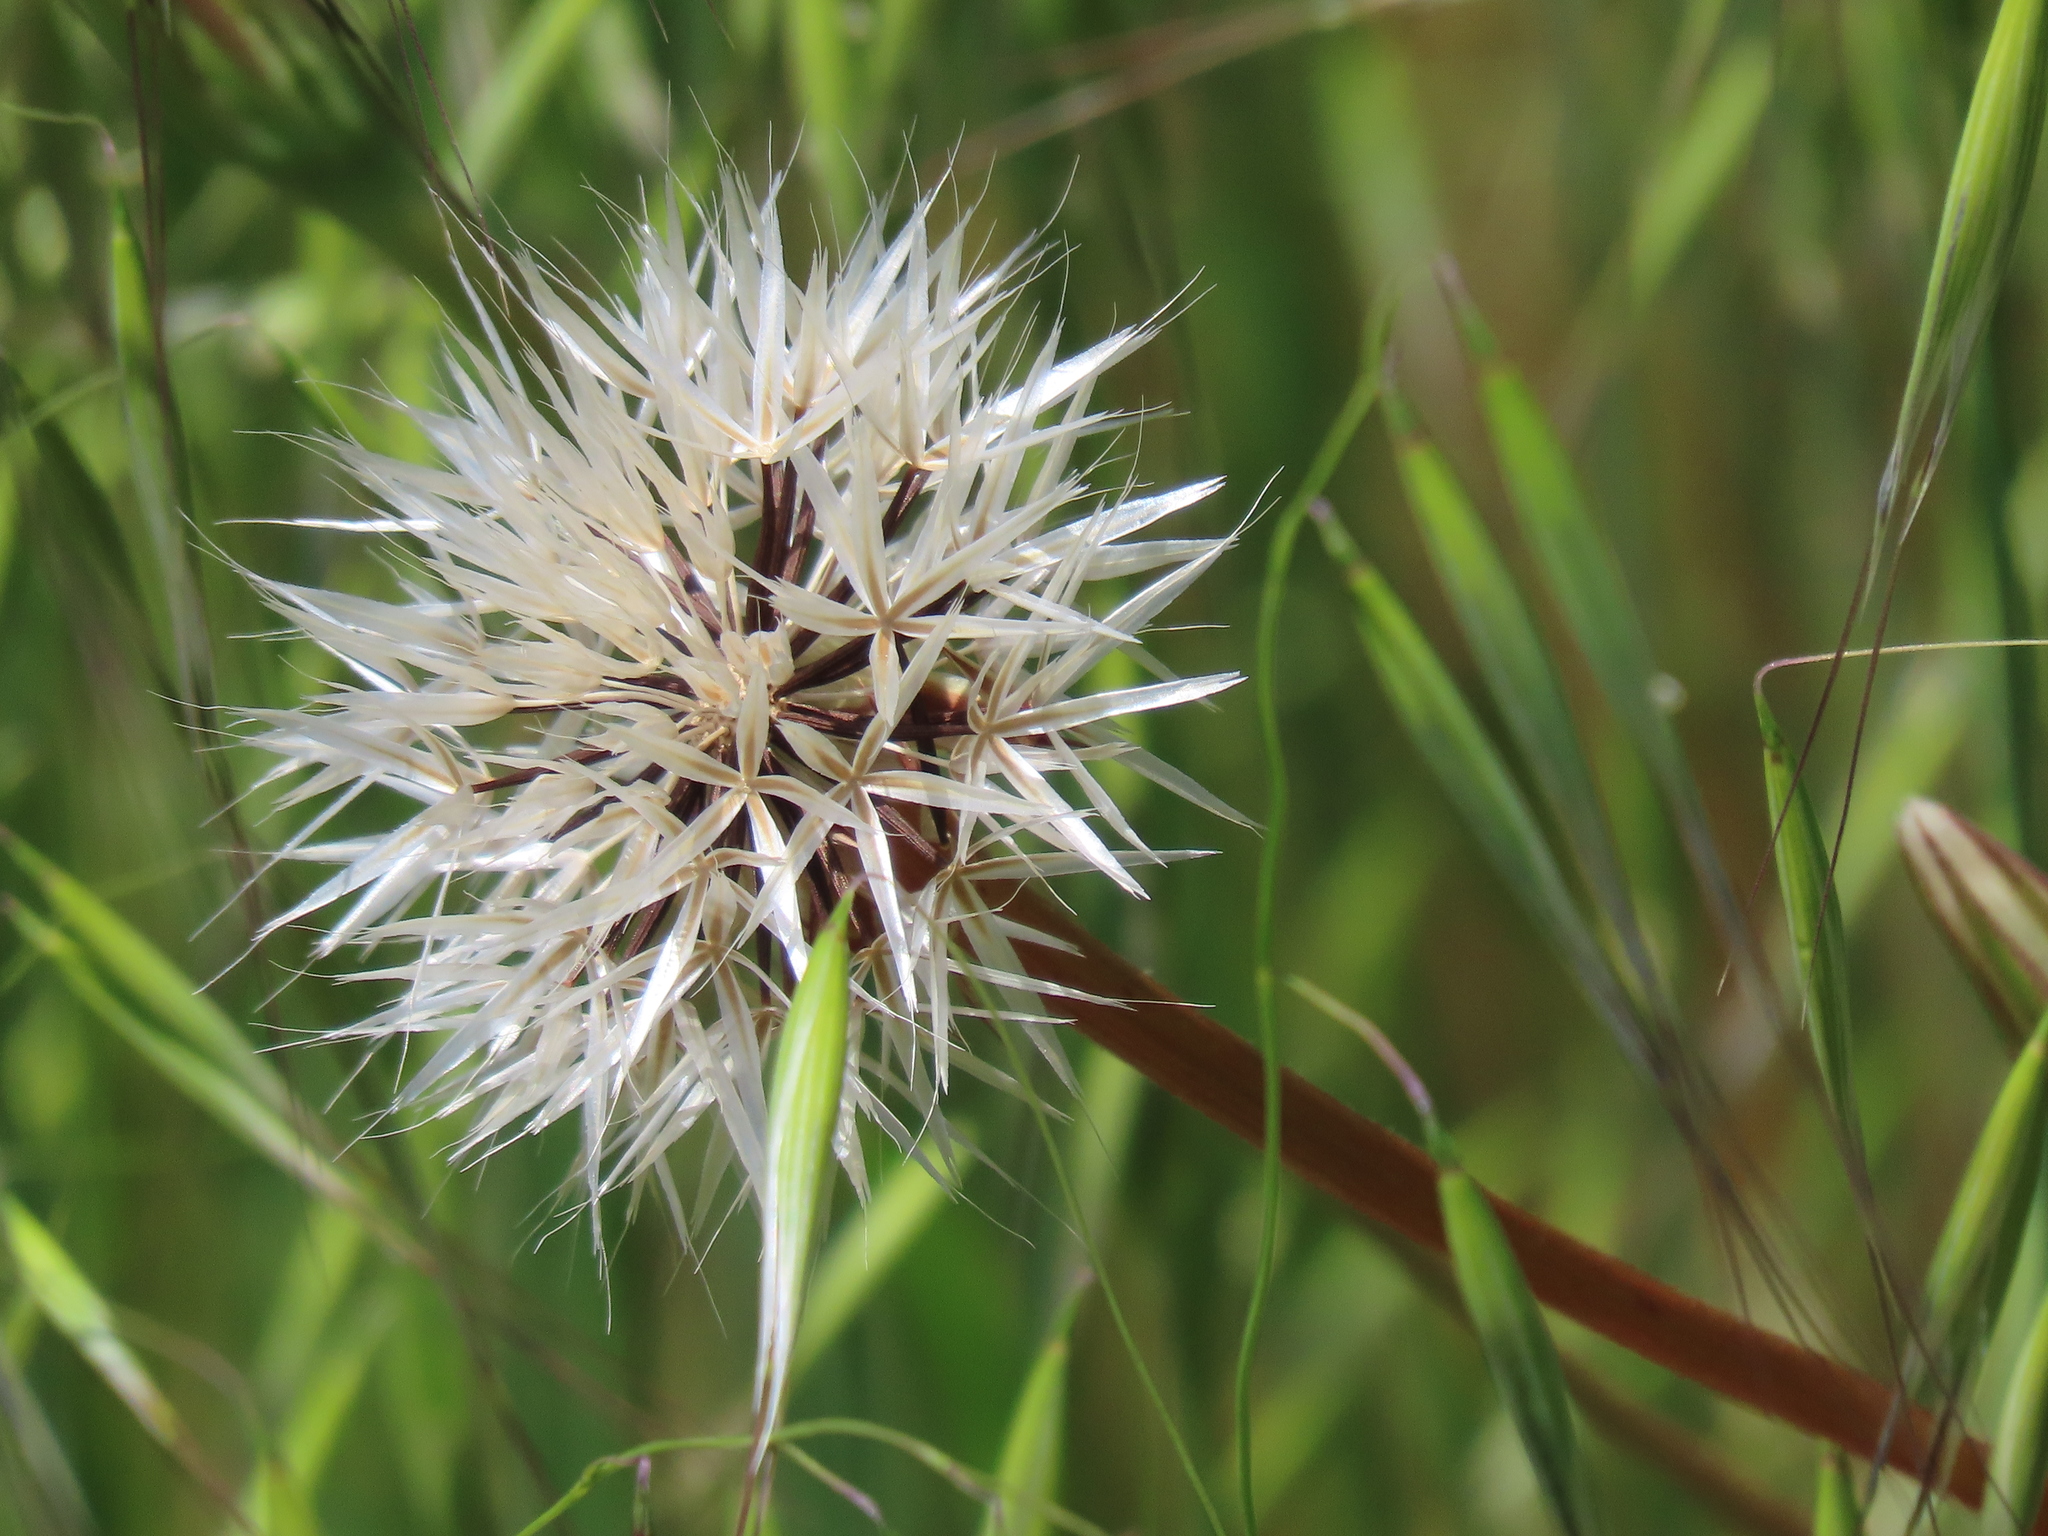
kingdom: Plantae
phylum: Tracheophyta
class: Magnoliopsida
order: Asterales
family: Asteraceae
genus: Microseris
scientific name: Microseris lindleyi
